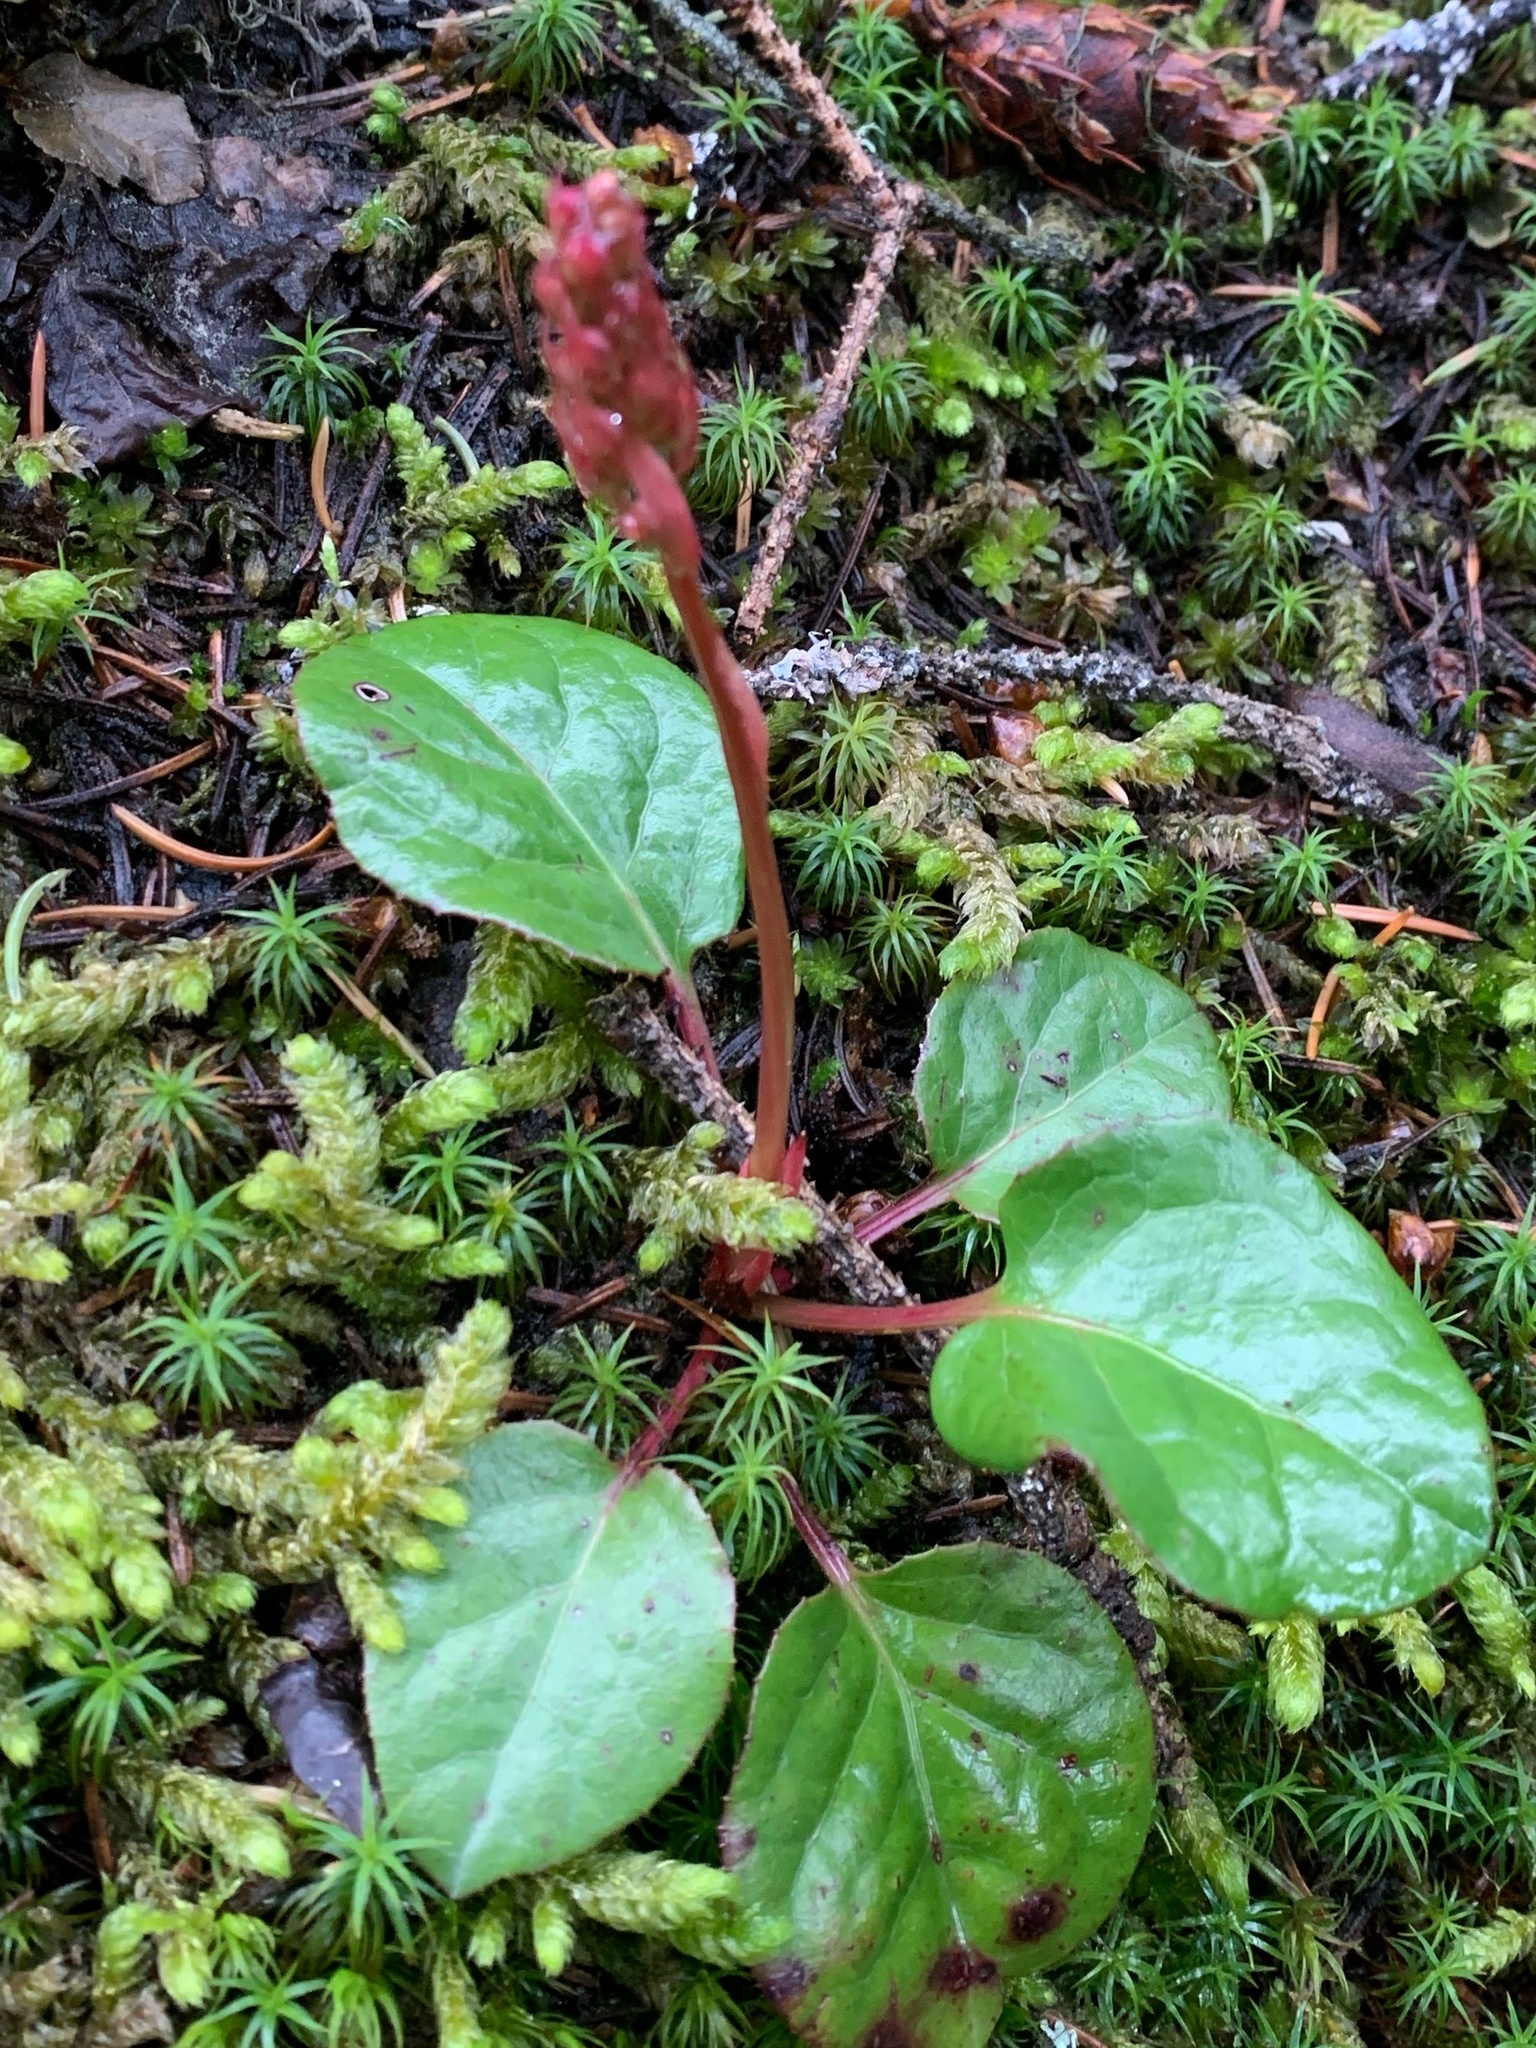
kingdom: Plantae
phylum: Tracheophyta
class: Magnoliopsida
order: Ericales
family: Ericaceae
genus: Pyrola
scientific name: Pyrola asarifolia
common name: Bog wintergreen
